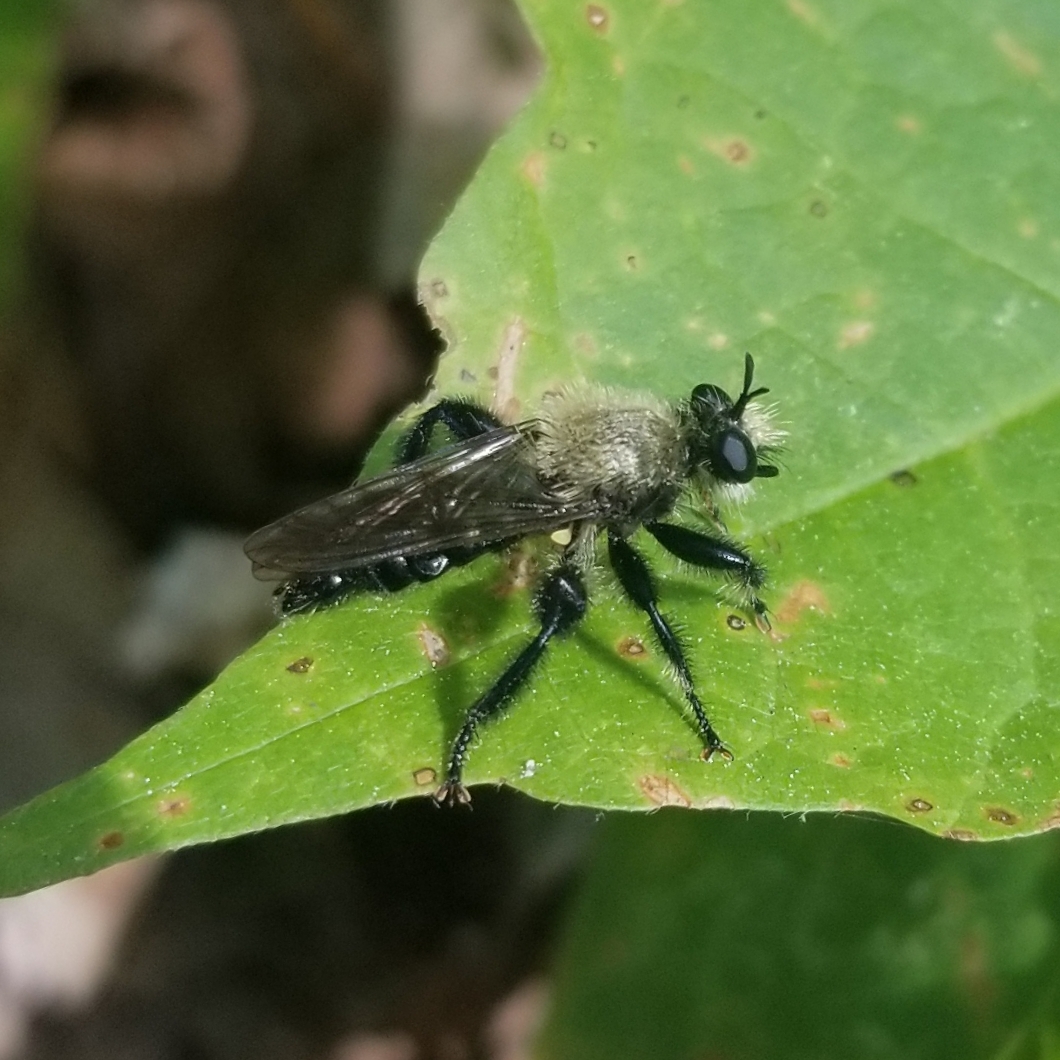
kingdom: Animalia
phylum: Arthropoda
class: Insecta
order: Diptera
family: Asilidae
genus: Laphria
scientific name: Laphria flavicollis
